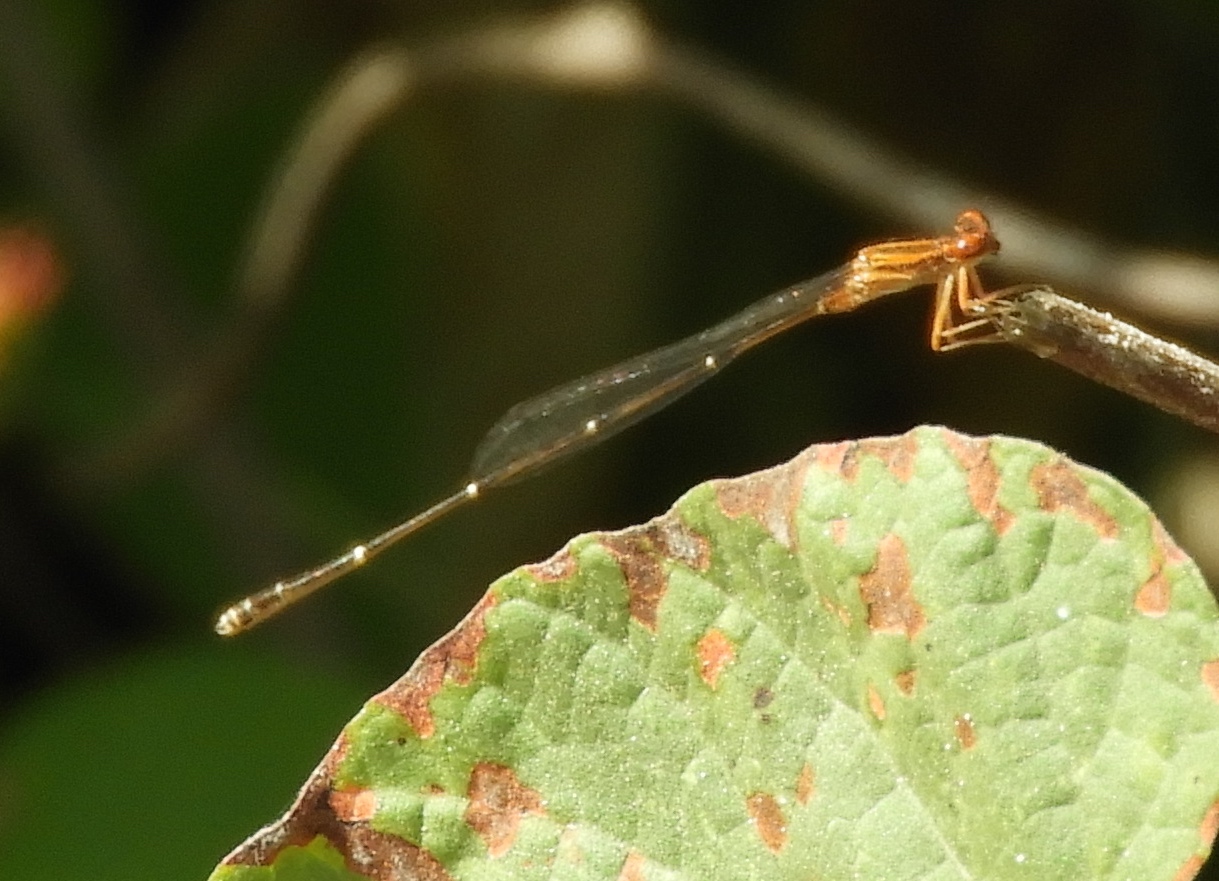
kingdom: Animalia
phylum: Arthropoda
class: Insecta
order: Odonata
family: Coenagrionidae
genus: Protoneura
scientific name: Protoneura cara
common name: Orange-striped threadtail
